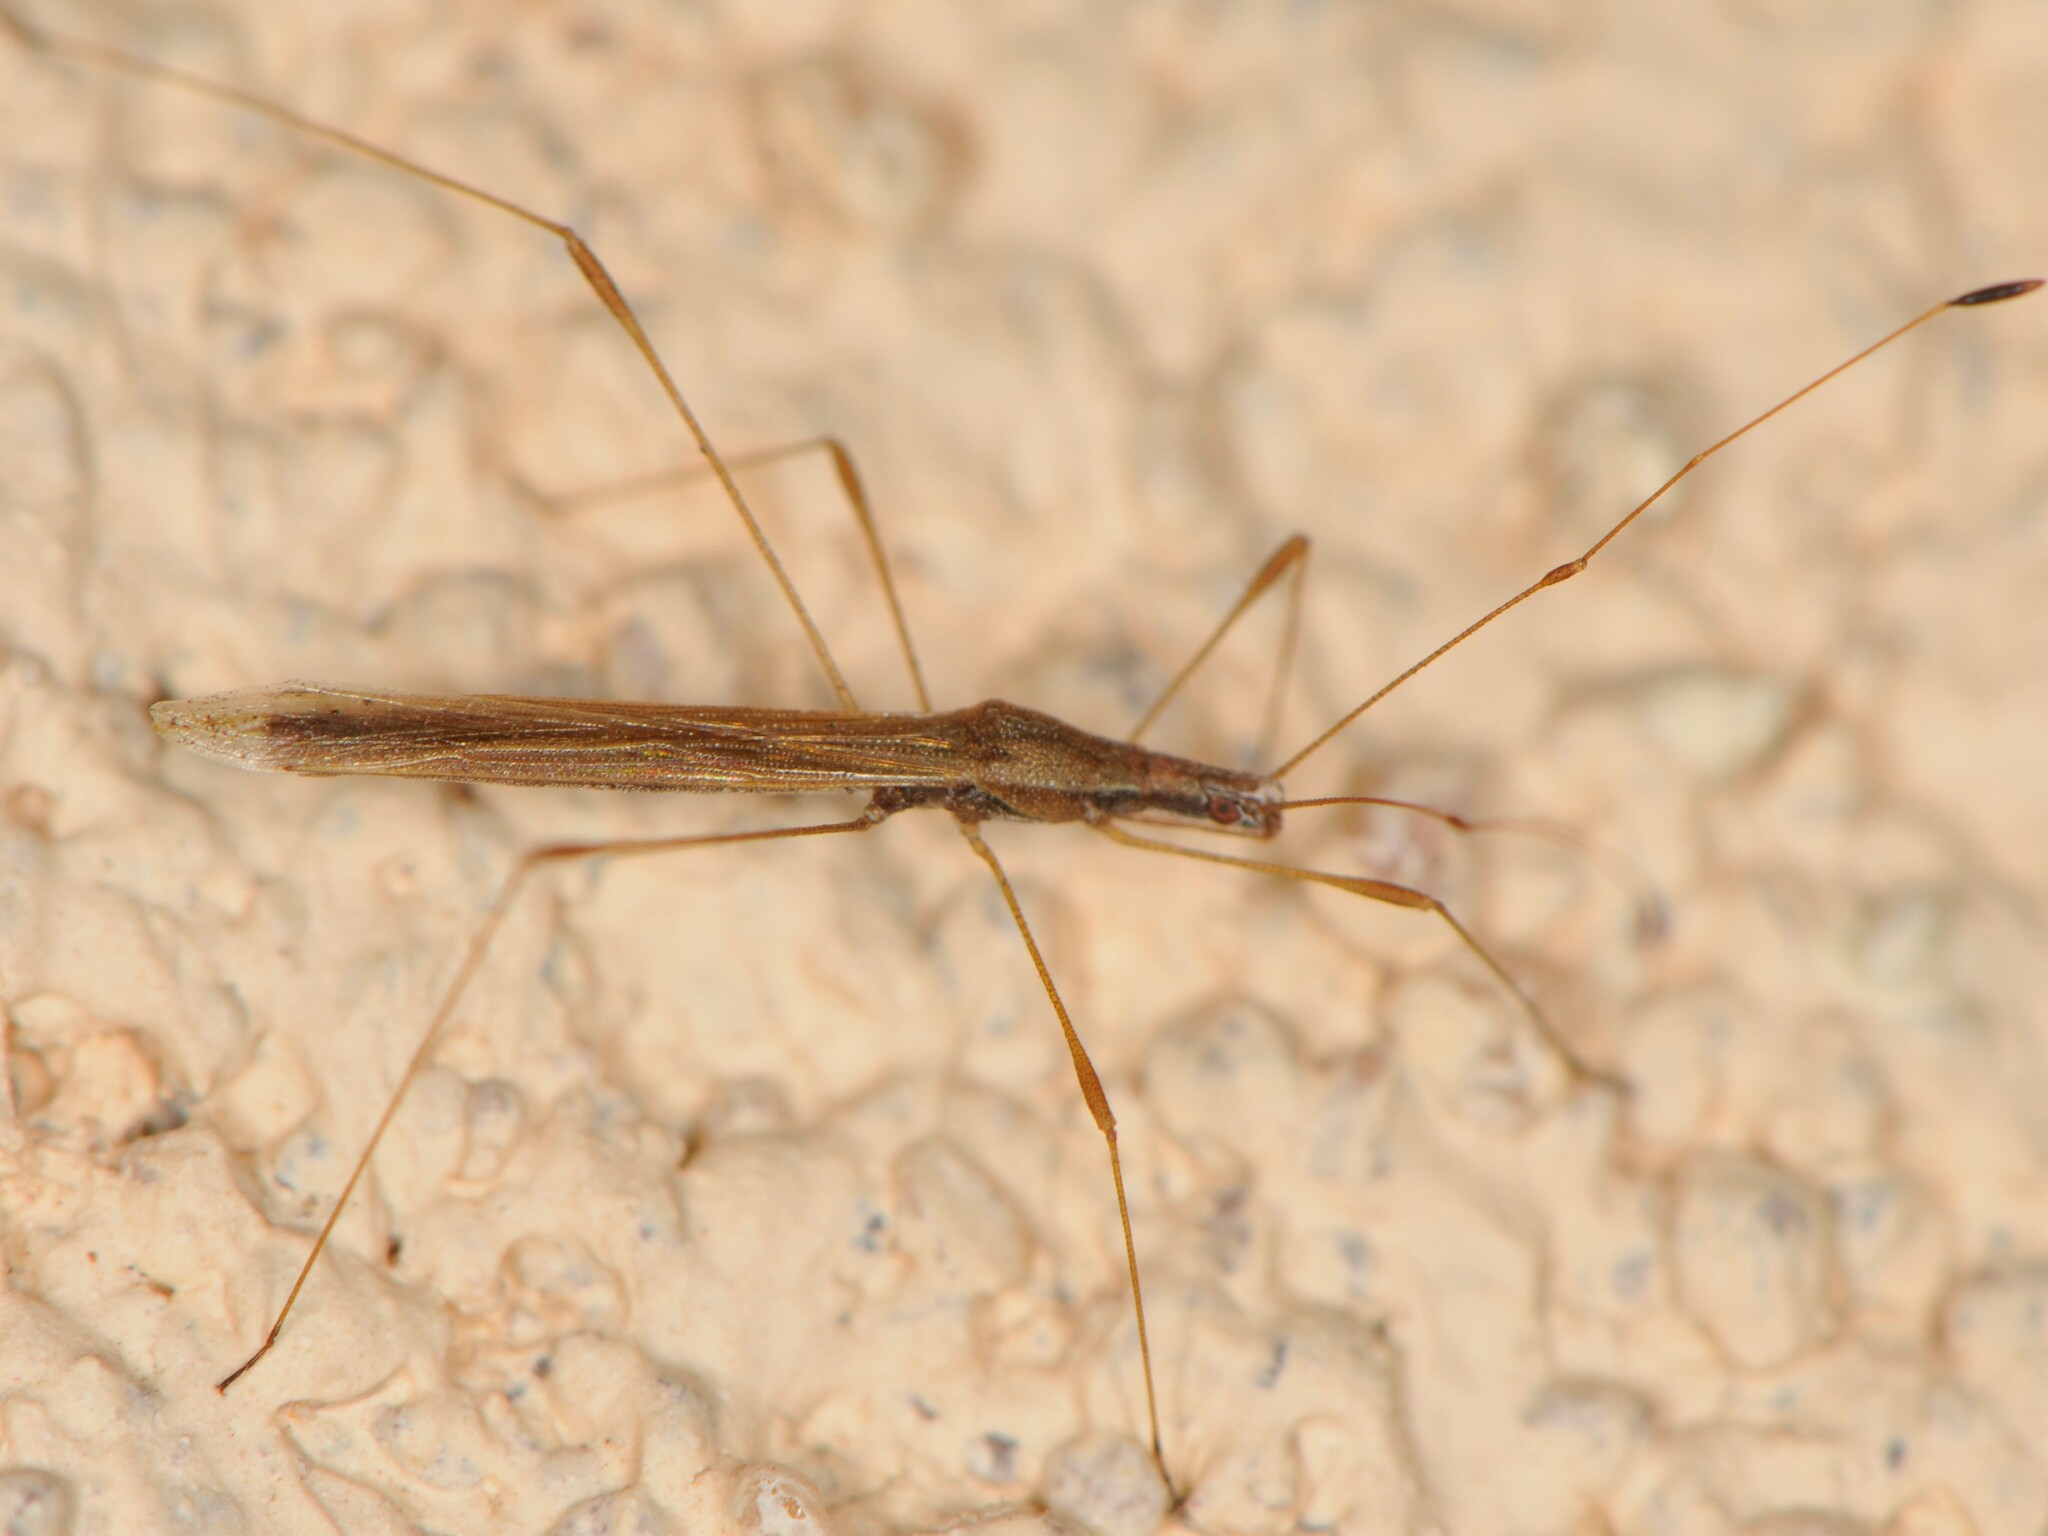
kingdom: Animalia
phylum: Arthropoda
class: Insecta
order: Hemiptera
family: Berytidae
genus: Neoneides
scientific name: Neoneides muticus
